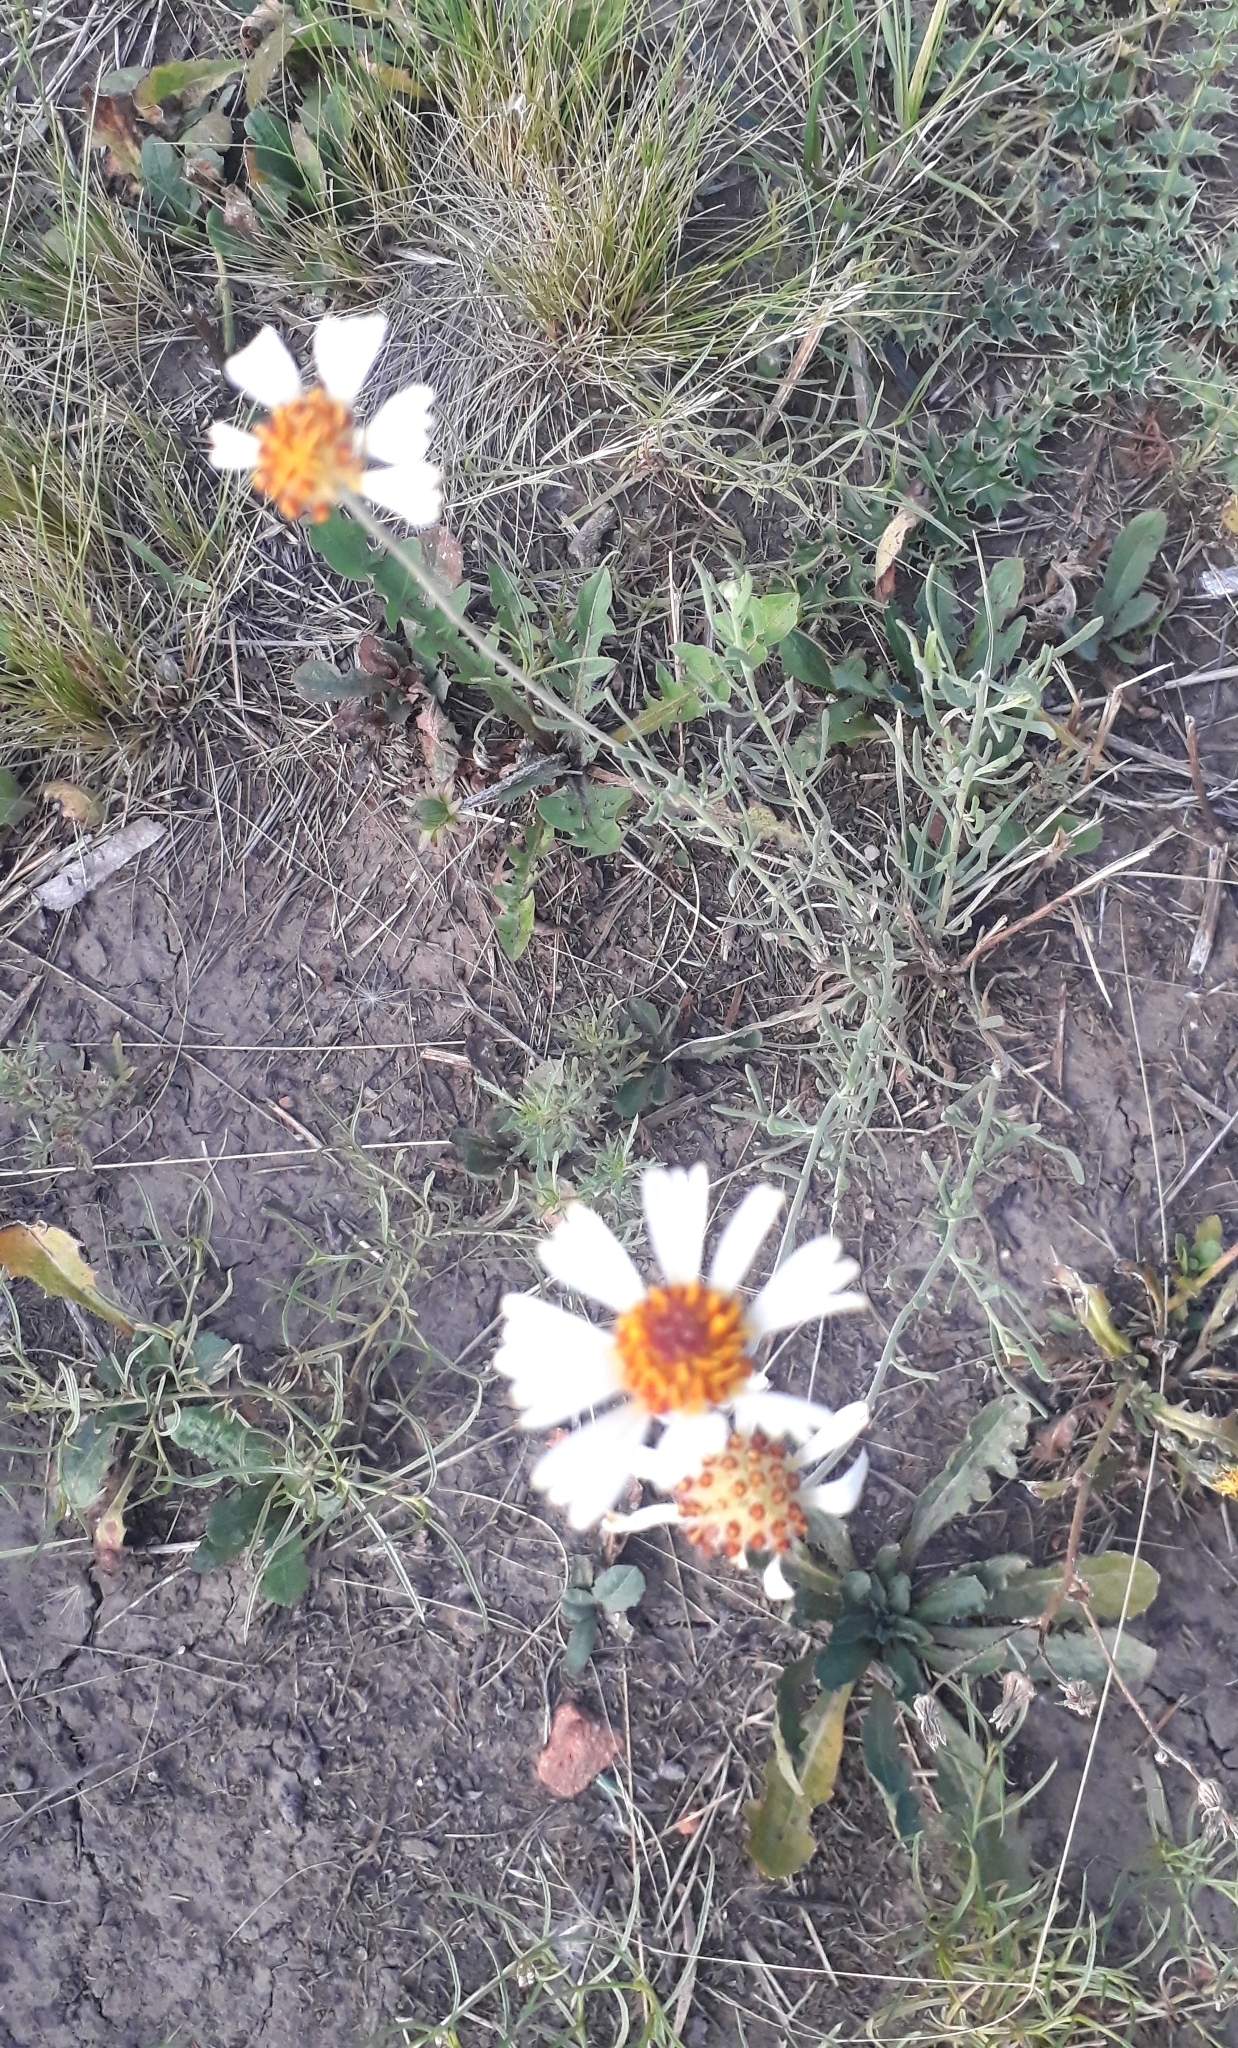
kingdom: Plantae
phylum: Tracheophyta
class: Magnoliopsida
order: Asterales
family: Asteraceae
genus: Helenium
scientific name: Helenium uniflorum
